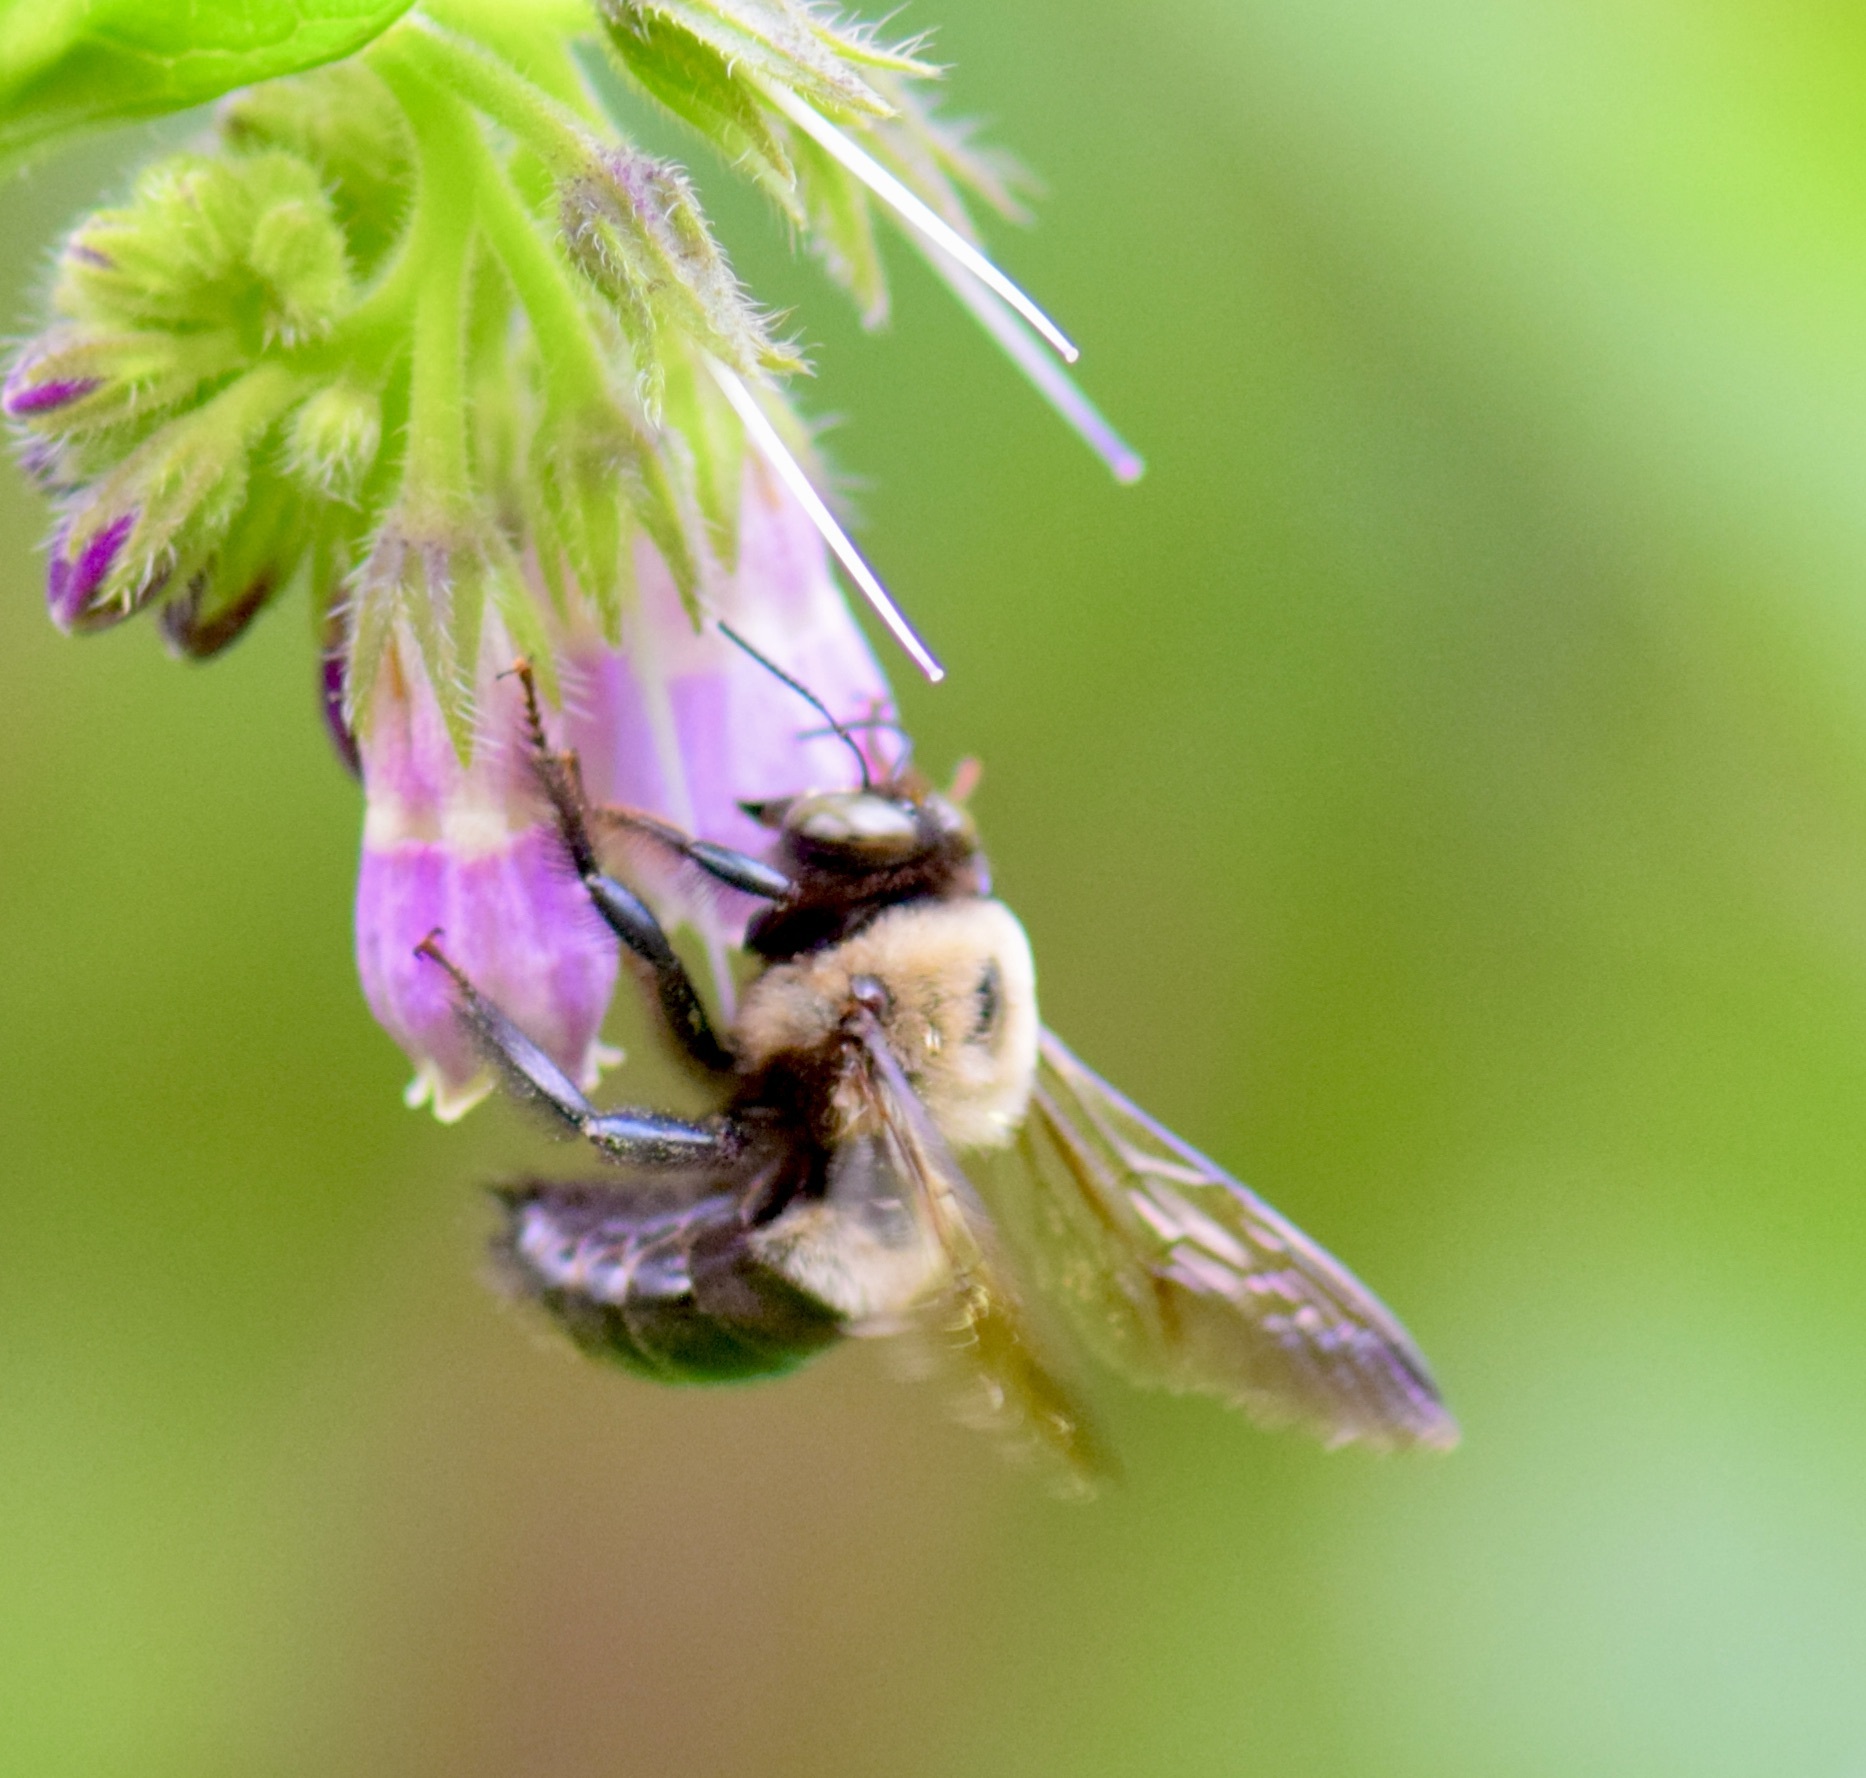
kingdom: Animalia
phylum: Arthropoda
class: Insecta
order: Hymenoptera
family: Apidae
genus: Xylocopa
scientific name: Xylocopa virginica
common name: Carpenter bee
